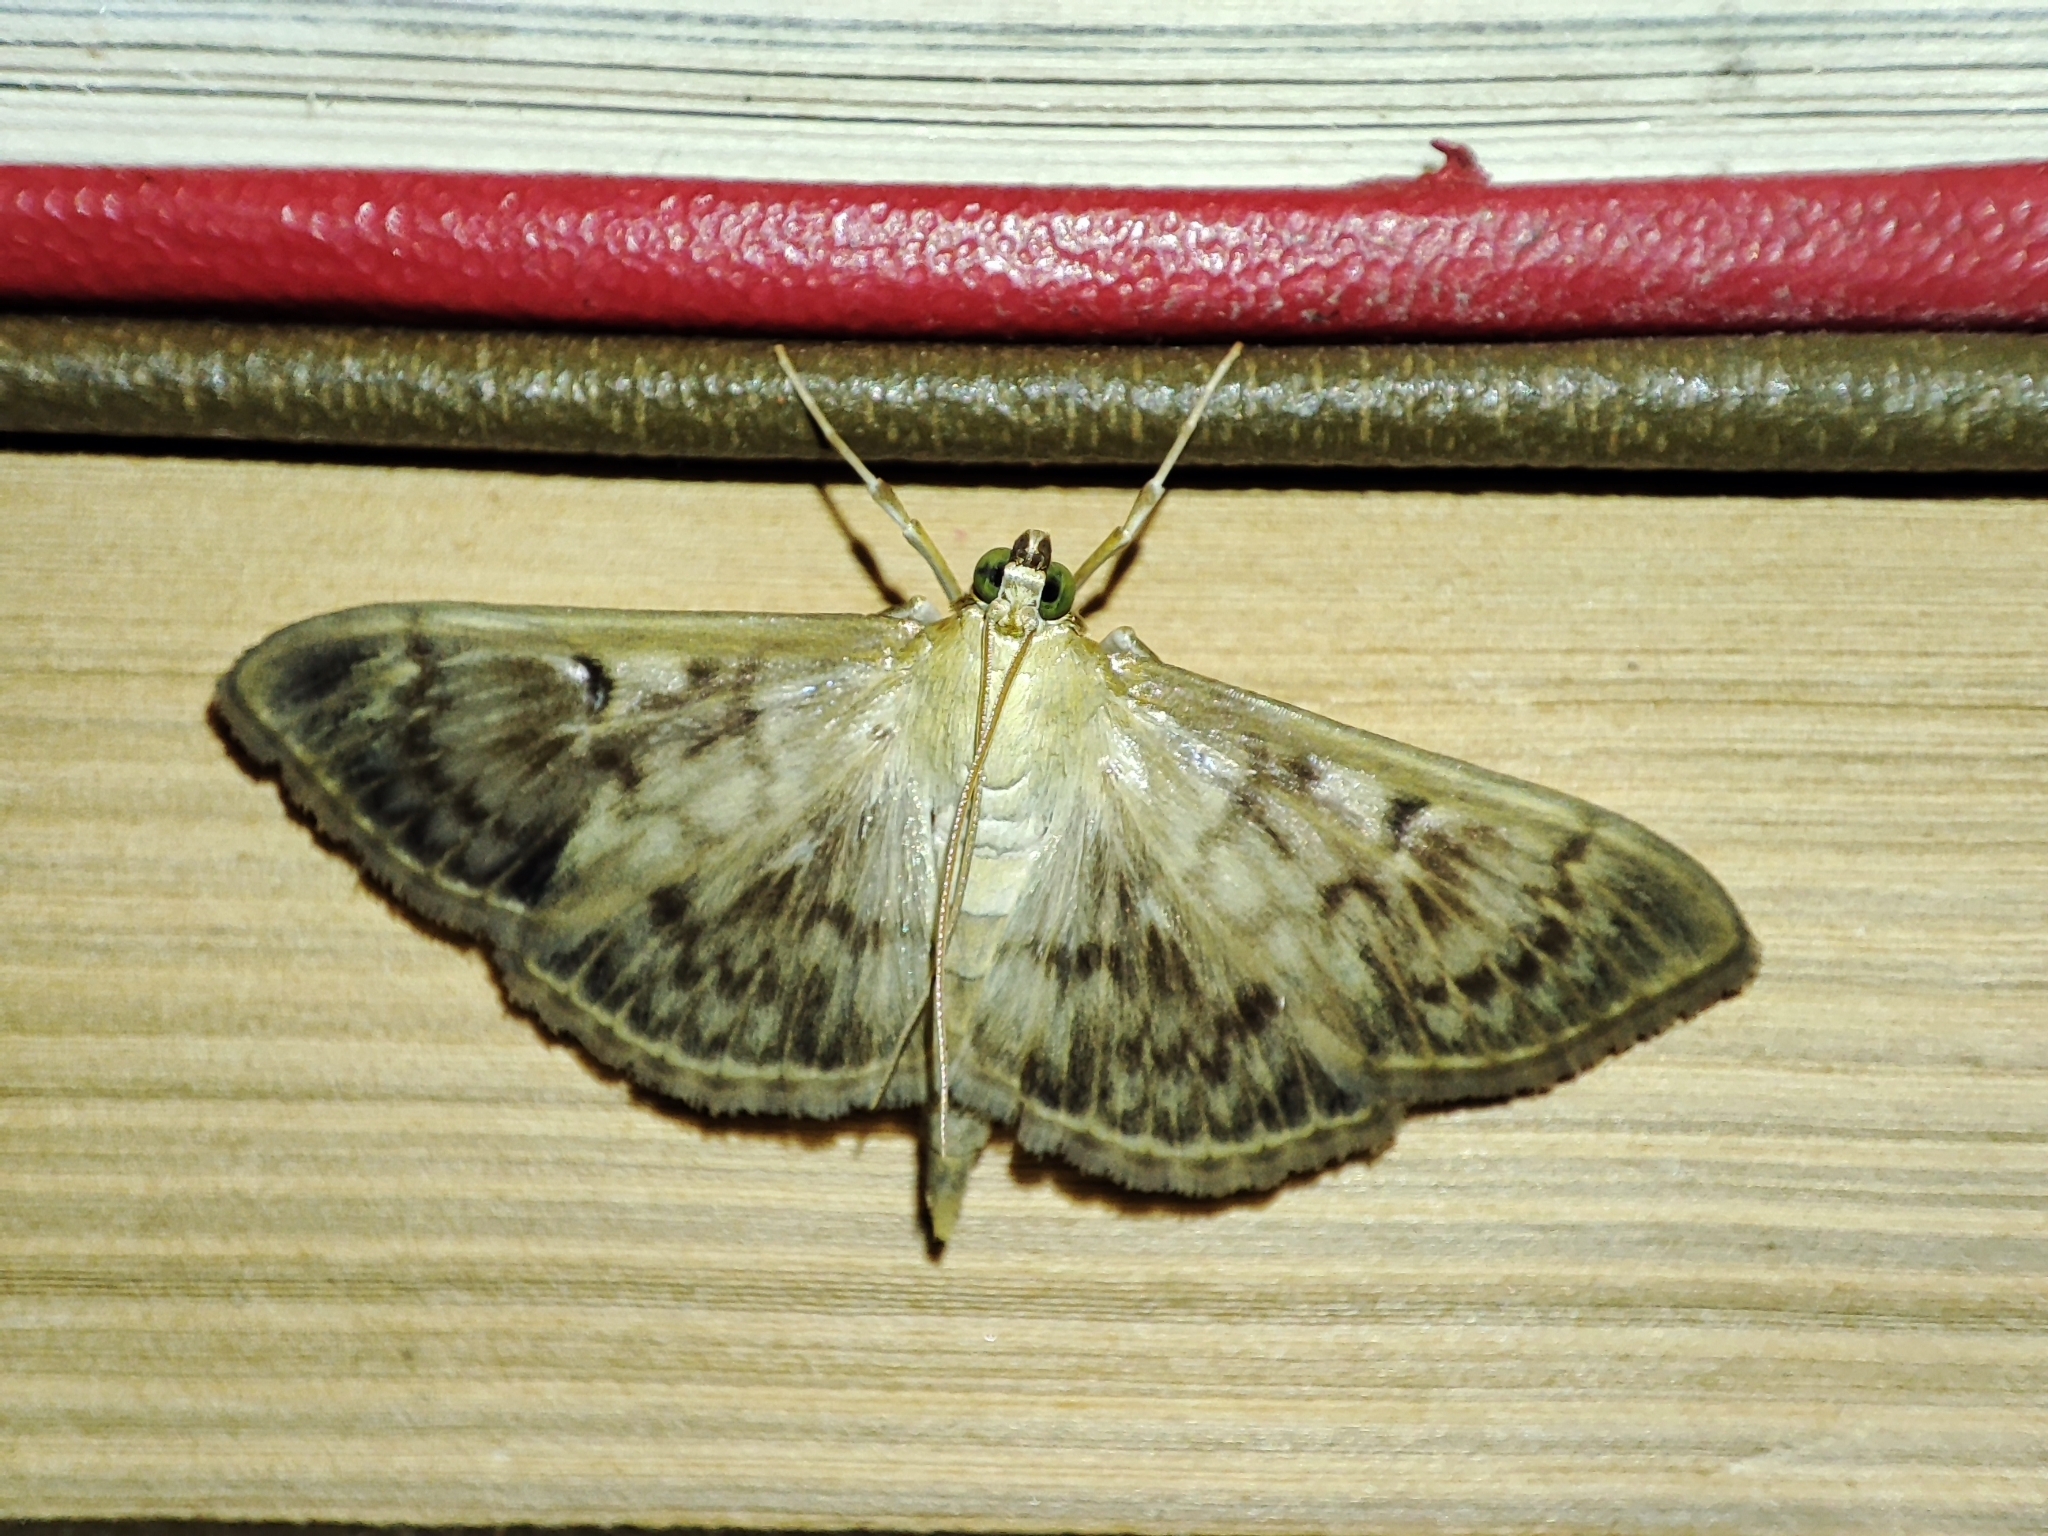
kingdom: Animalia
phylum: Arthropoda
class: Insecta
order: Lepidoptera
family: Crambidae
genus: Patania
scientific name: Patania ruralis
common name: Mother of pearl
